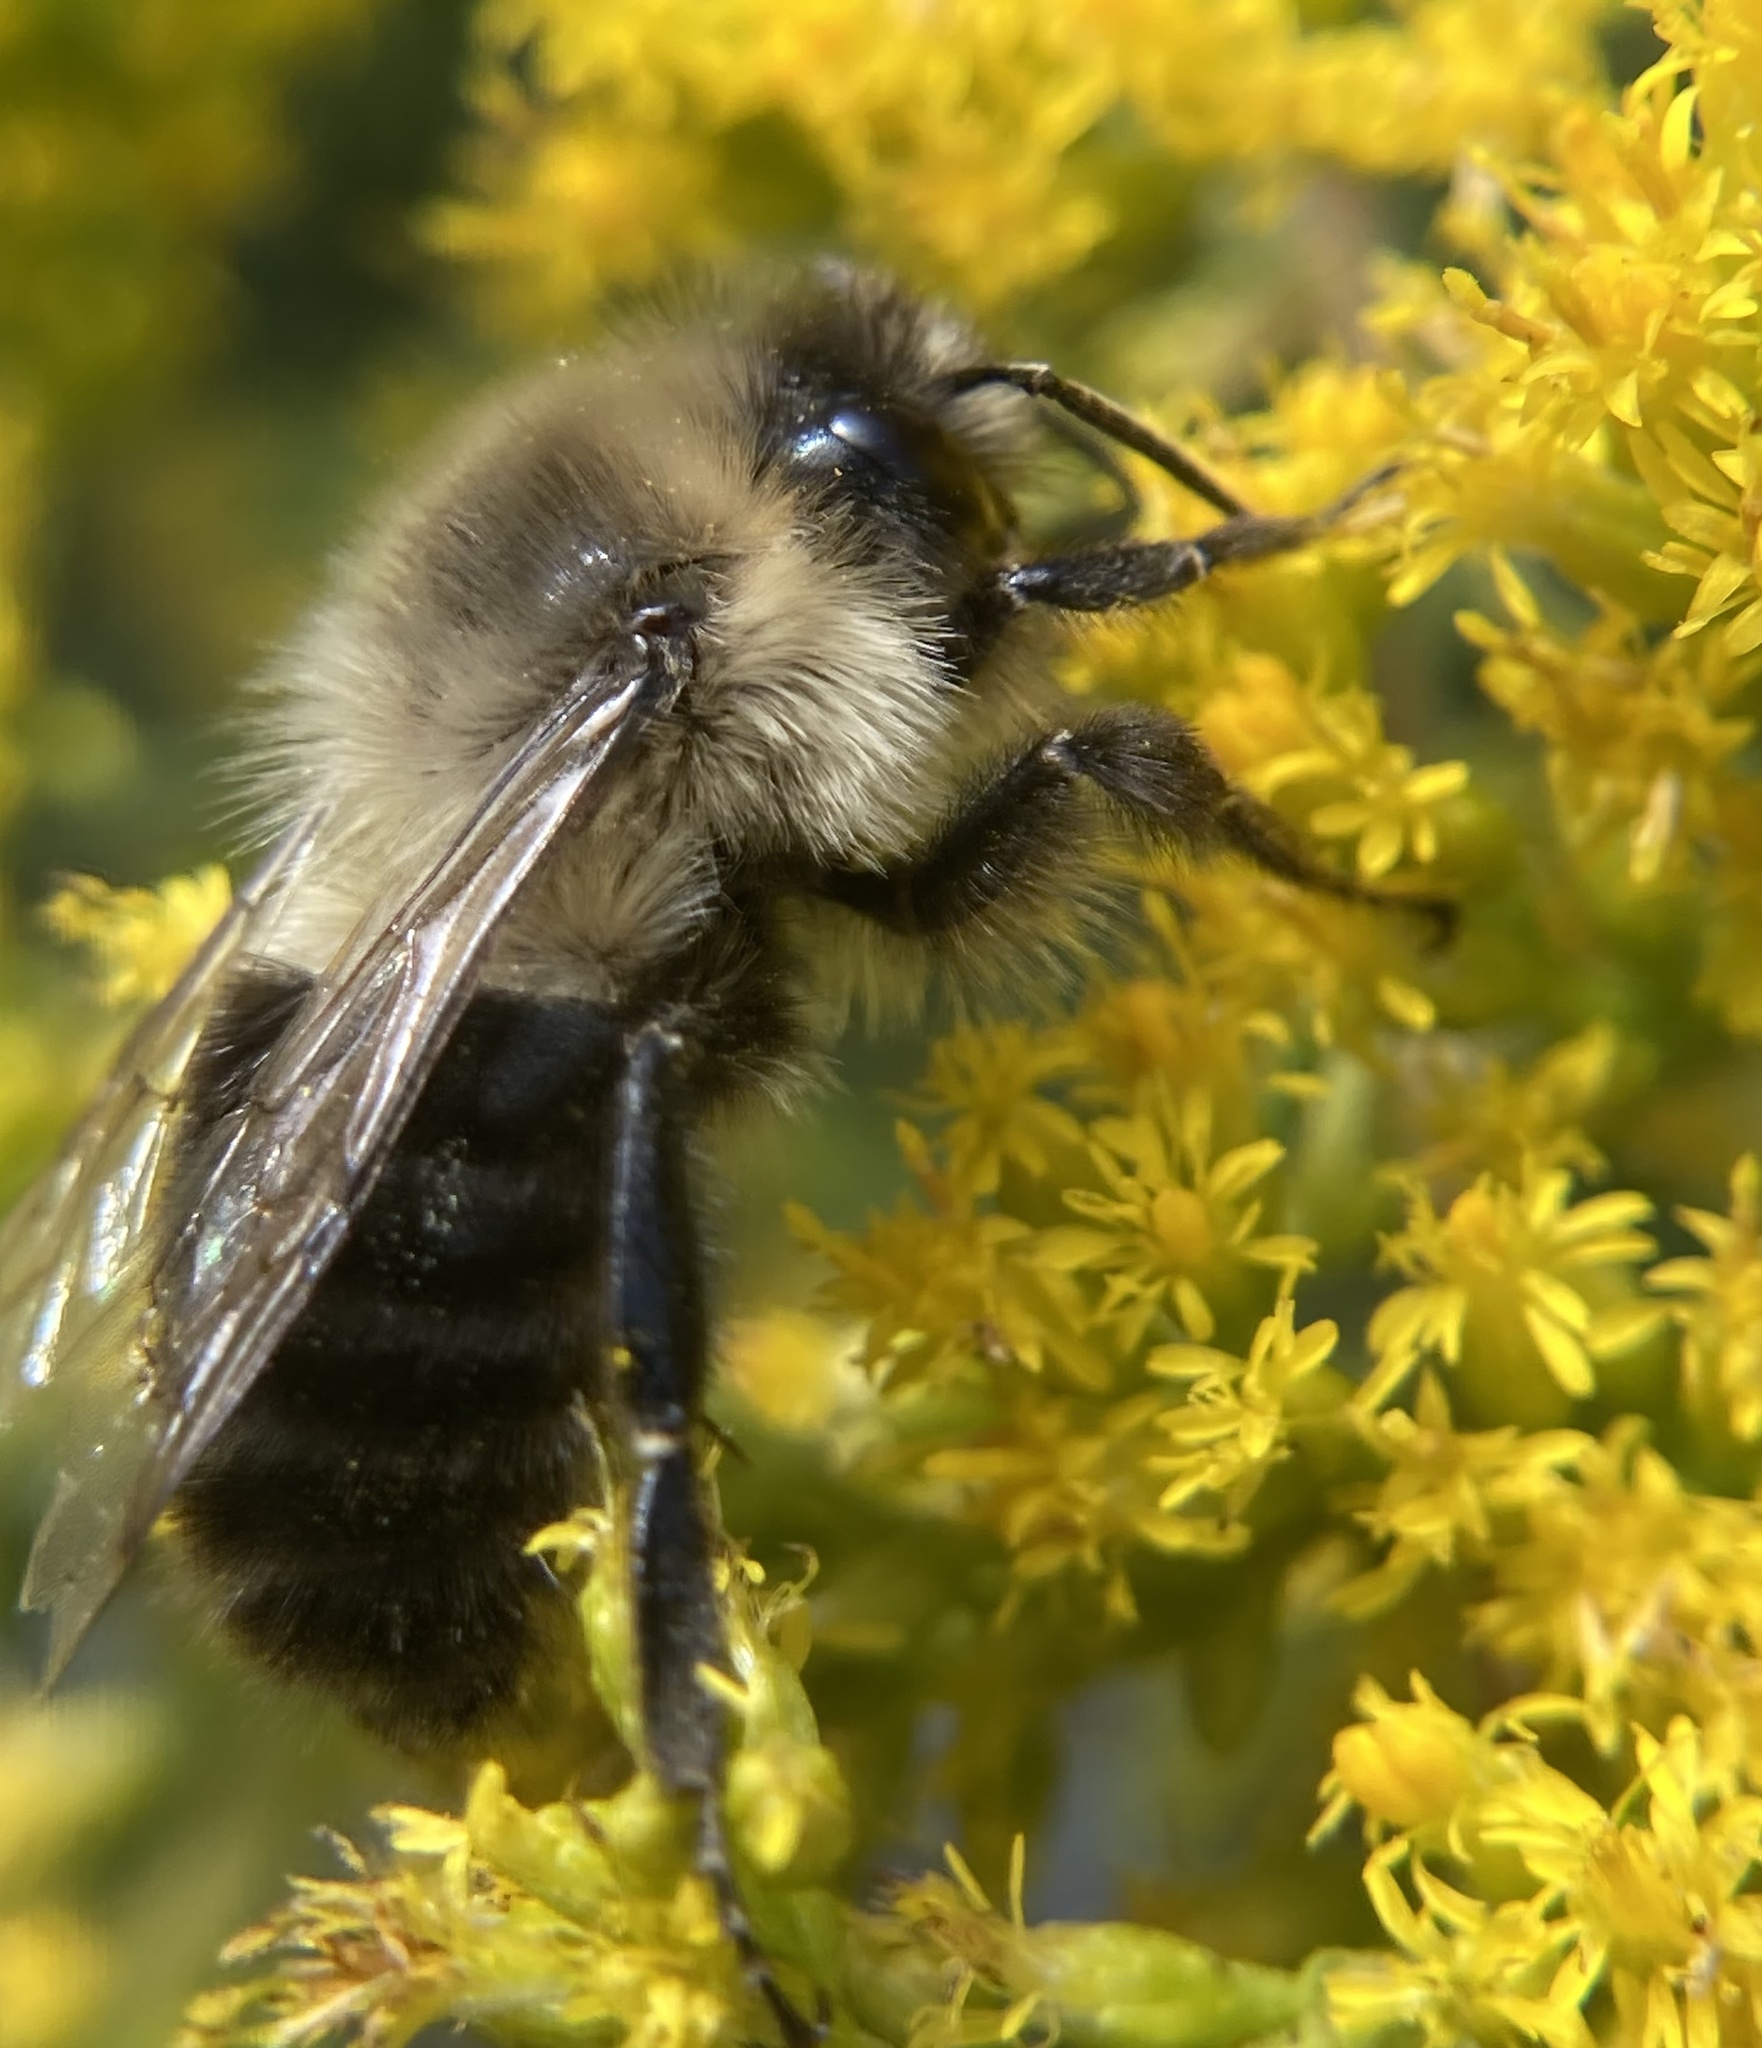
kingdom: Animalia
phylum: Arthropoda
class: Insecta
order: Hymenoptera
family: Apidae
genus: Bombus
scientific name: Bombus impatiens
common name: Common eastern bumble bee
